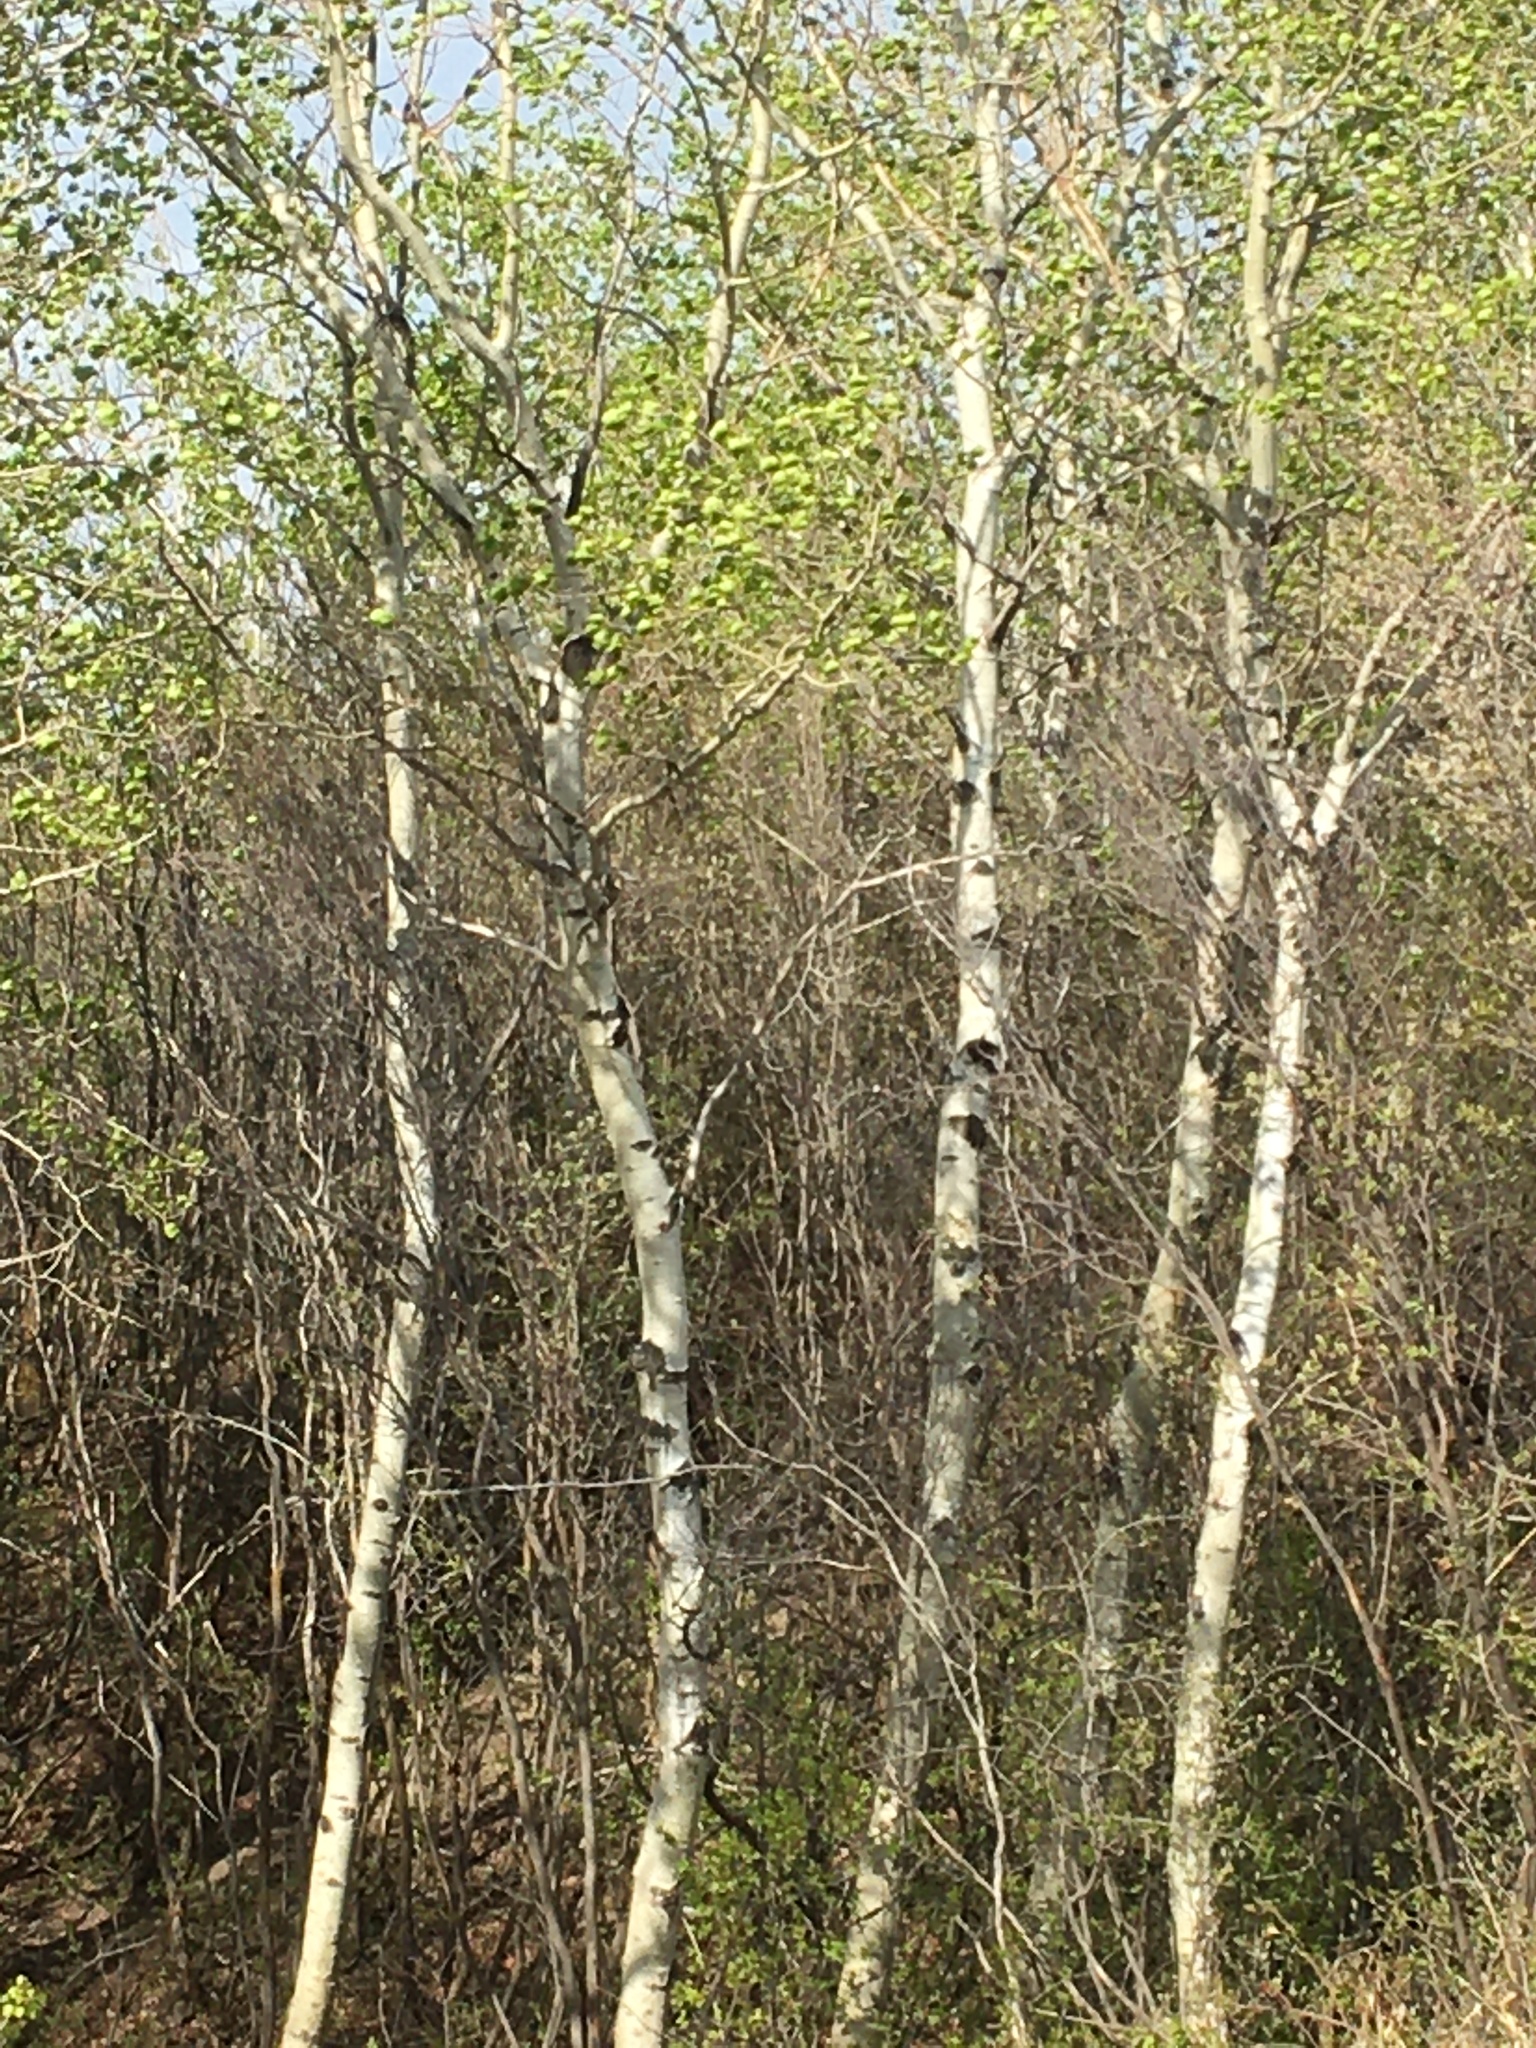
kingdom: Plantae
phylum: Tracheophyta
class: Magnoliopsida
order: Malpighiales
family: Salicaceae
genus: Populus
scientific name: Populus tremuloides
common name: Quaking aspen
